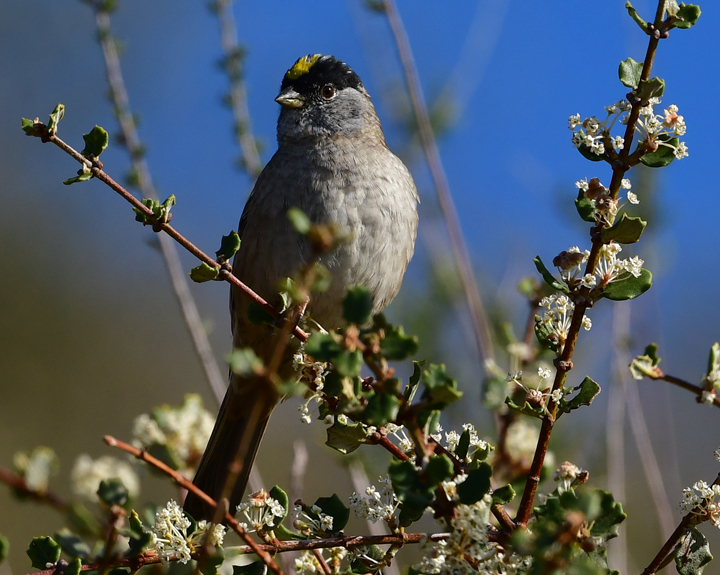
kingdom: Animalia
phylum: Chordata
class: Aves
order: Passeriformes
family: Passerellidae
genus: Zonotrichia
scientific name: Zonotrichia atricapilla
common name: Golden-crowned sparrow
